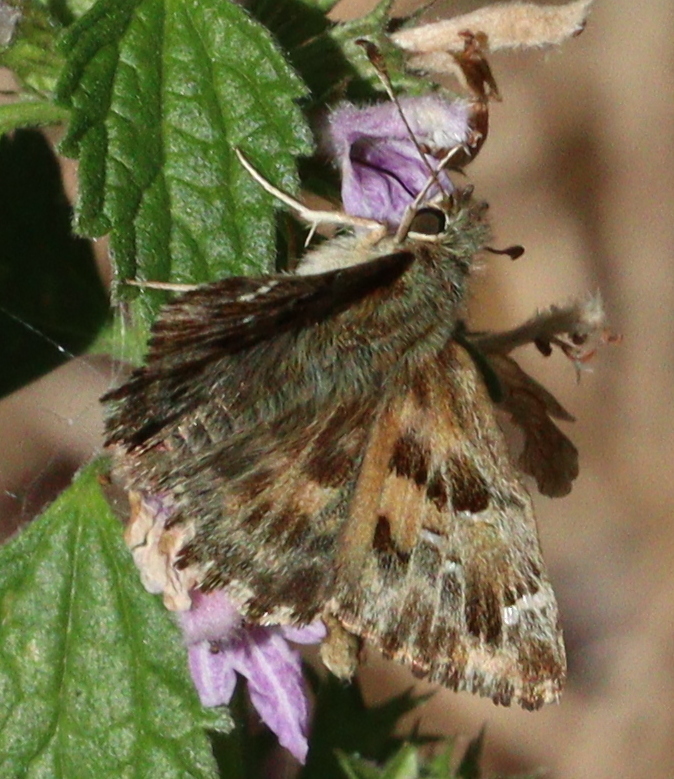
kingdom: Animalia
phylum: Arthropoda
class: Insecta
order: Lepidoptera
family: Hesperiidae
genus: Carcharodus
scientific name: Carcharodus alceae
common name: Mallow skipper
